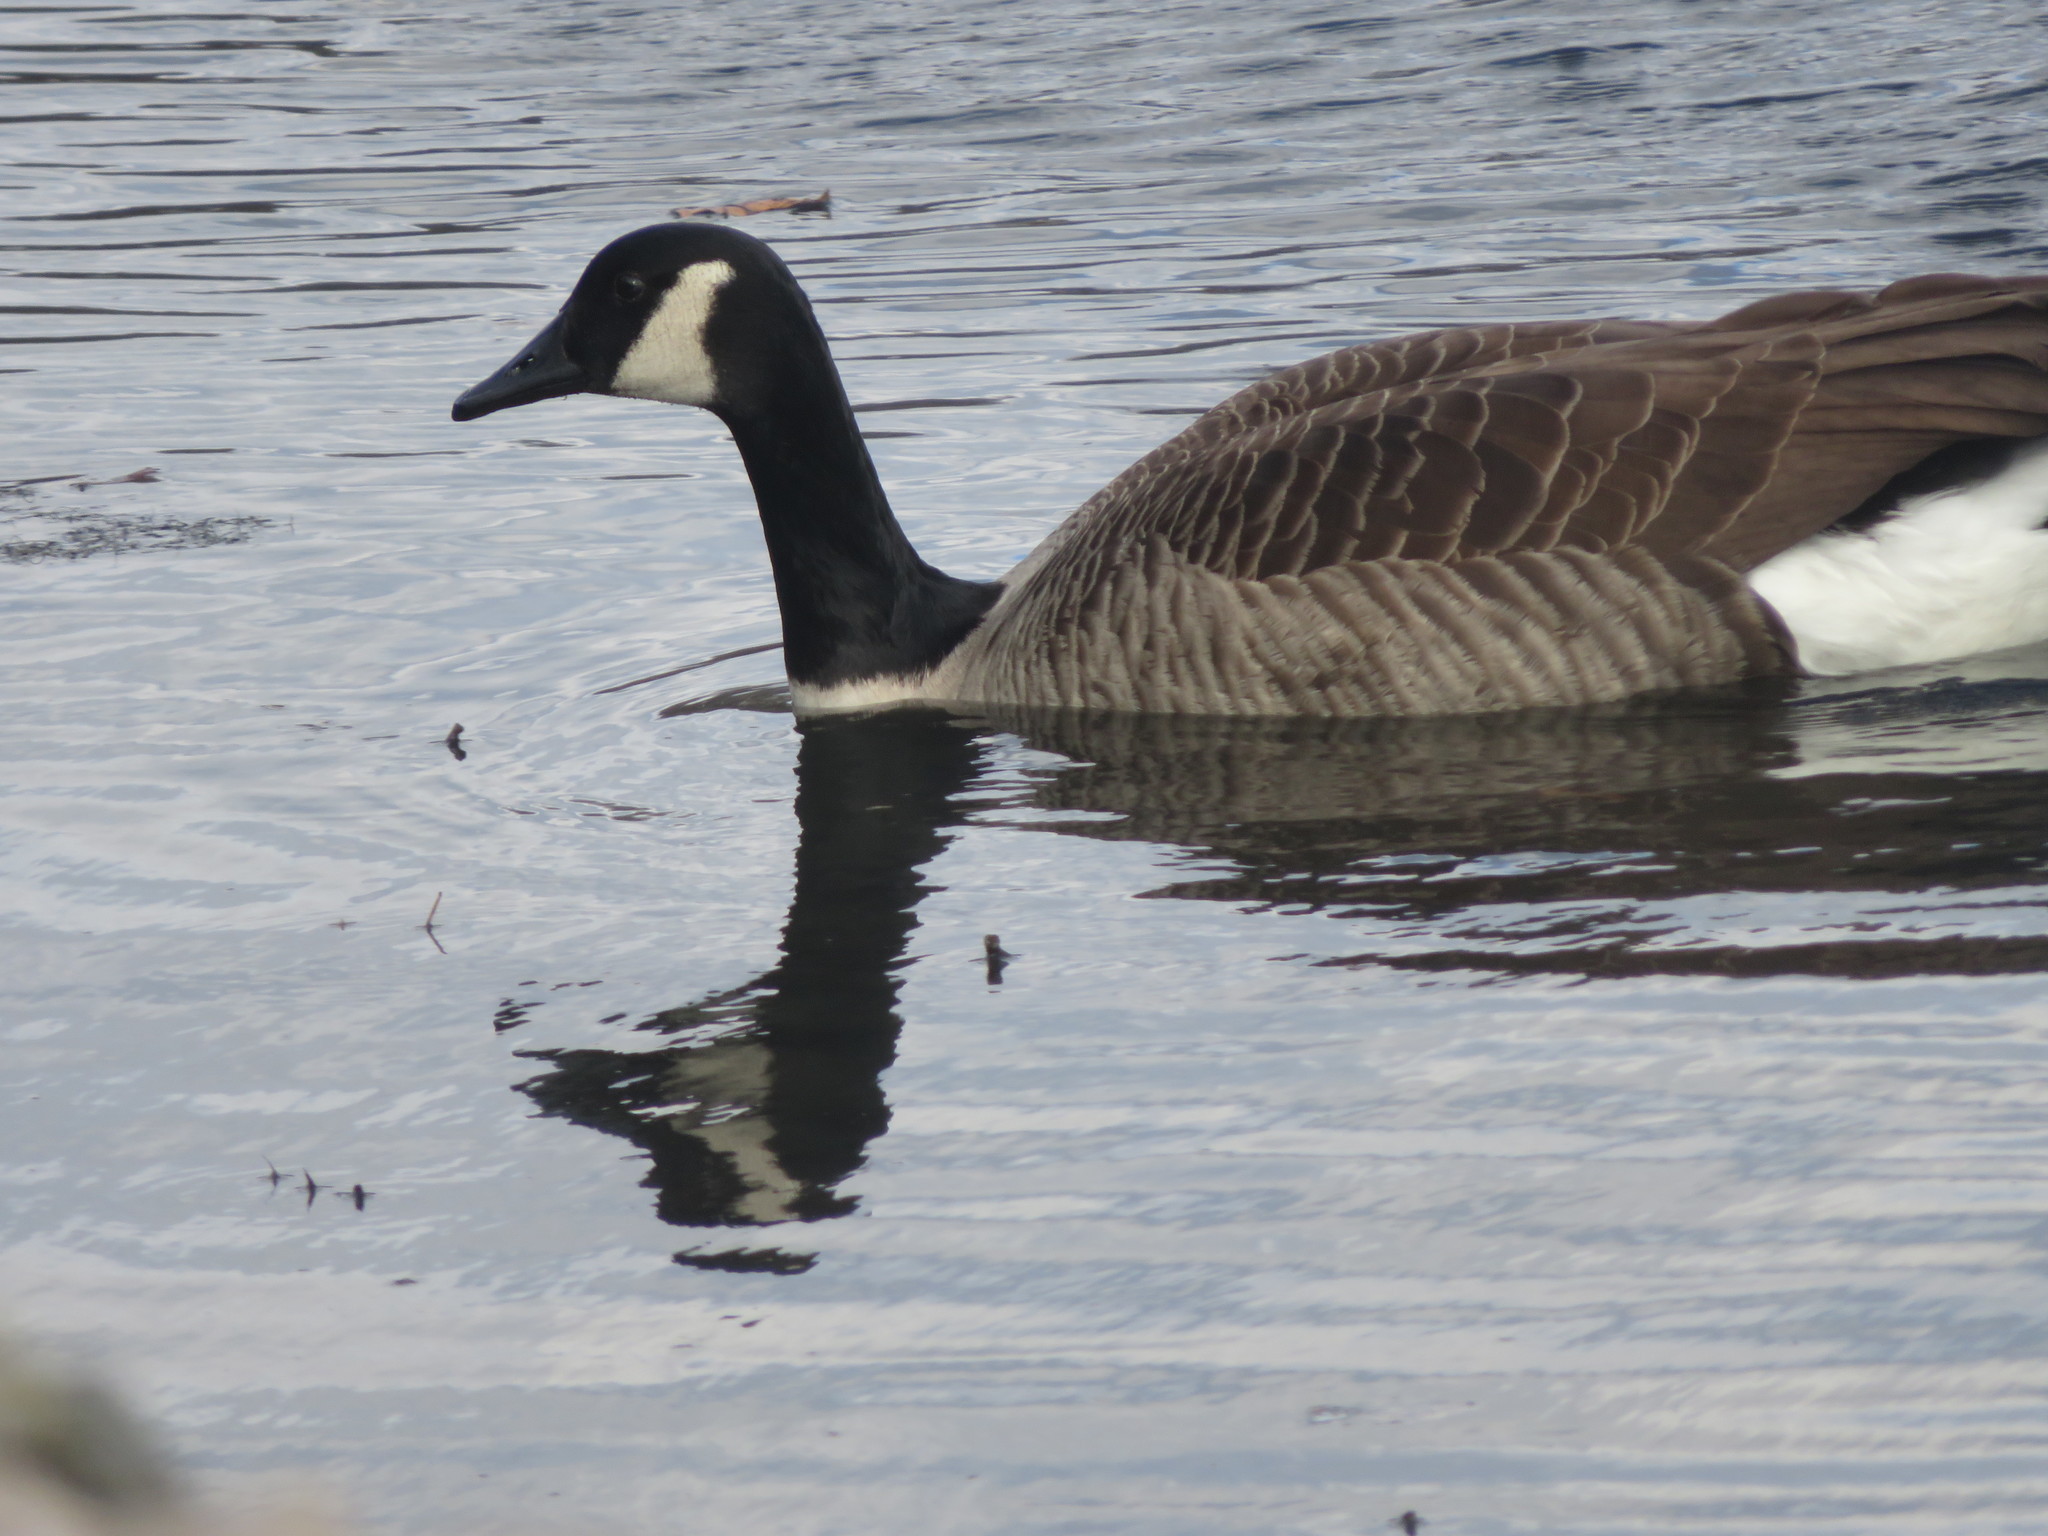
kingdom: Animalia
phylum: Chordata
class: Aves
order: Anseriformes
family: Anatidae
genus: Branta
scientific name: Branta canadensis
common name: Canada goose
